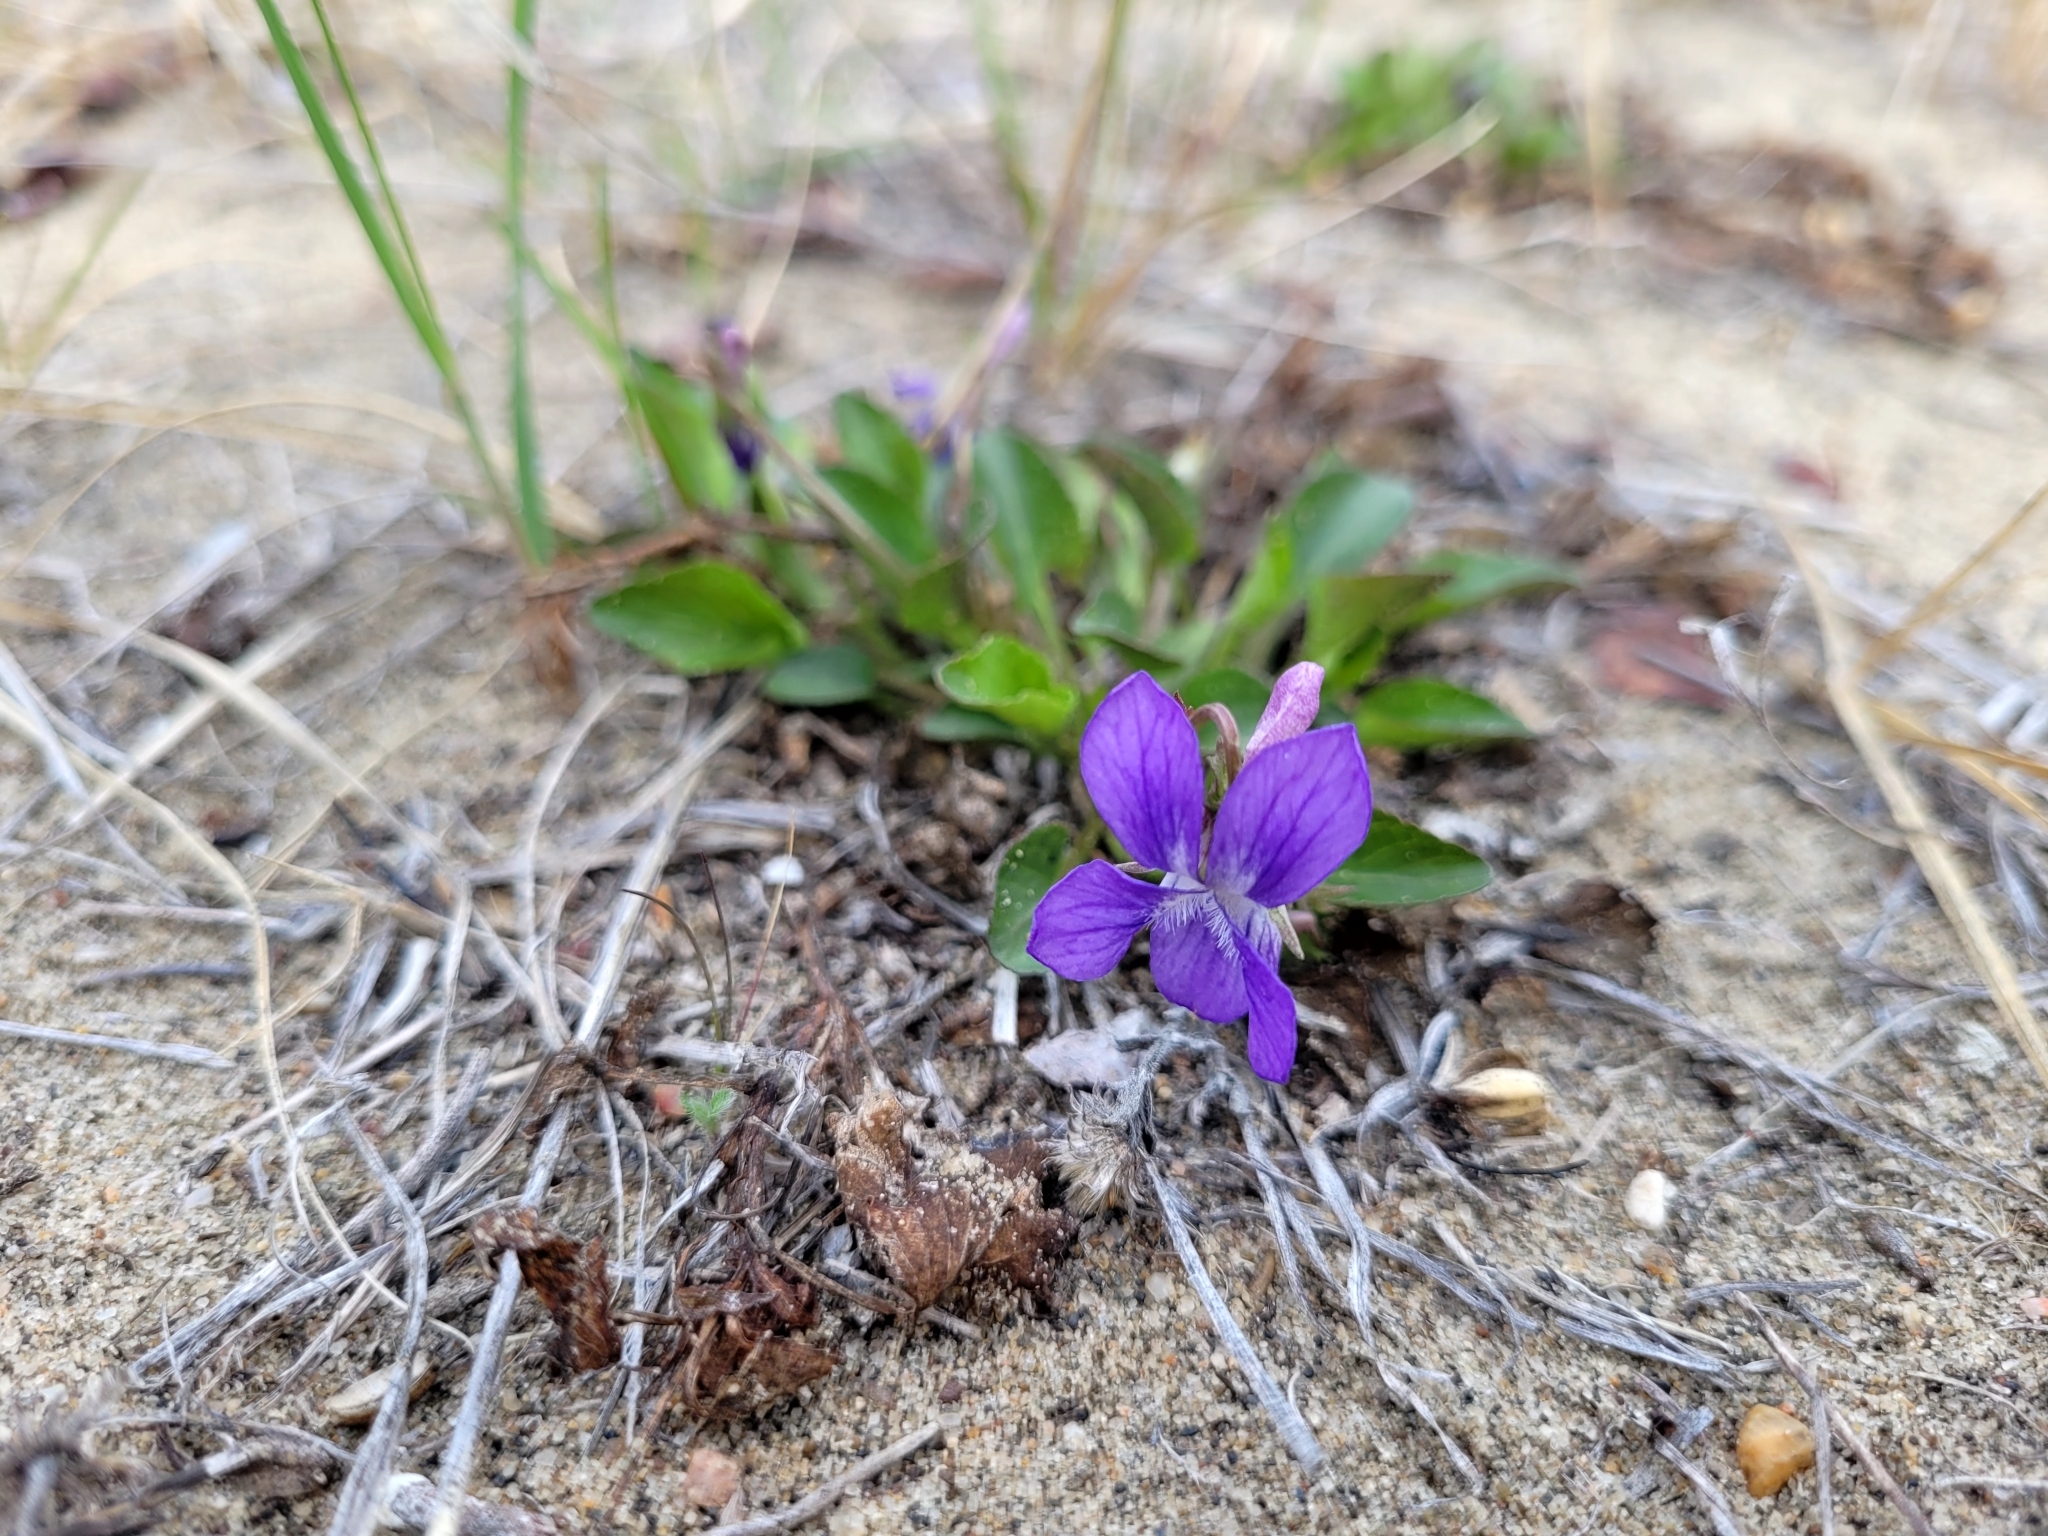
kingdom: Plantae
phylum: Tracheophyta
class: Magnoliopsida
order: Malpighiales
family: Violaceae
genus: Viola
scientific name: Viola adunca
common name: Sand violet
